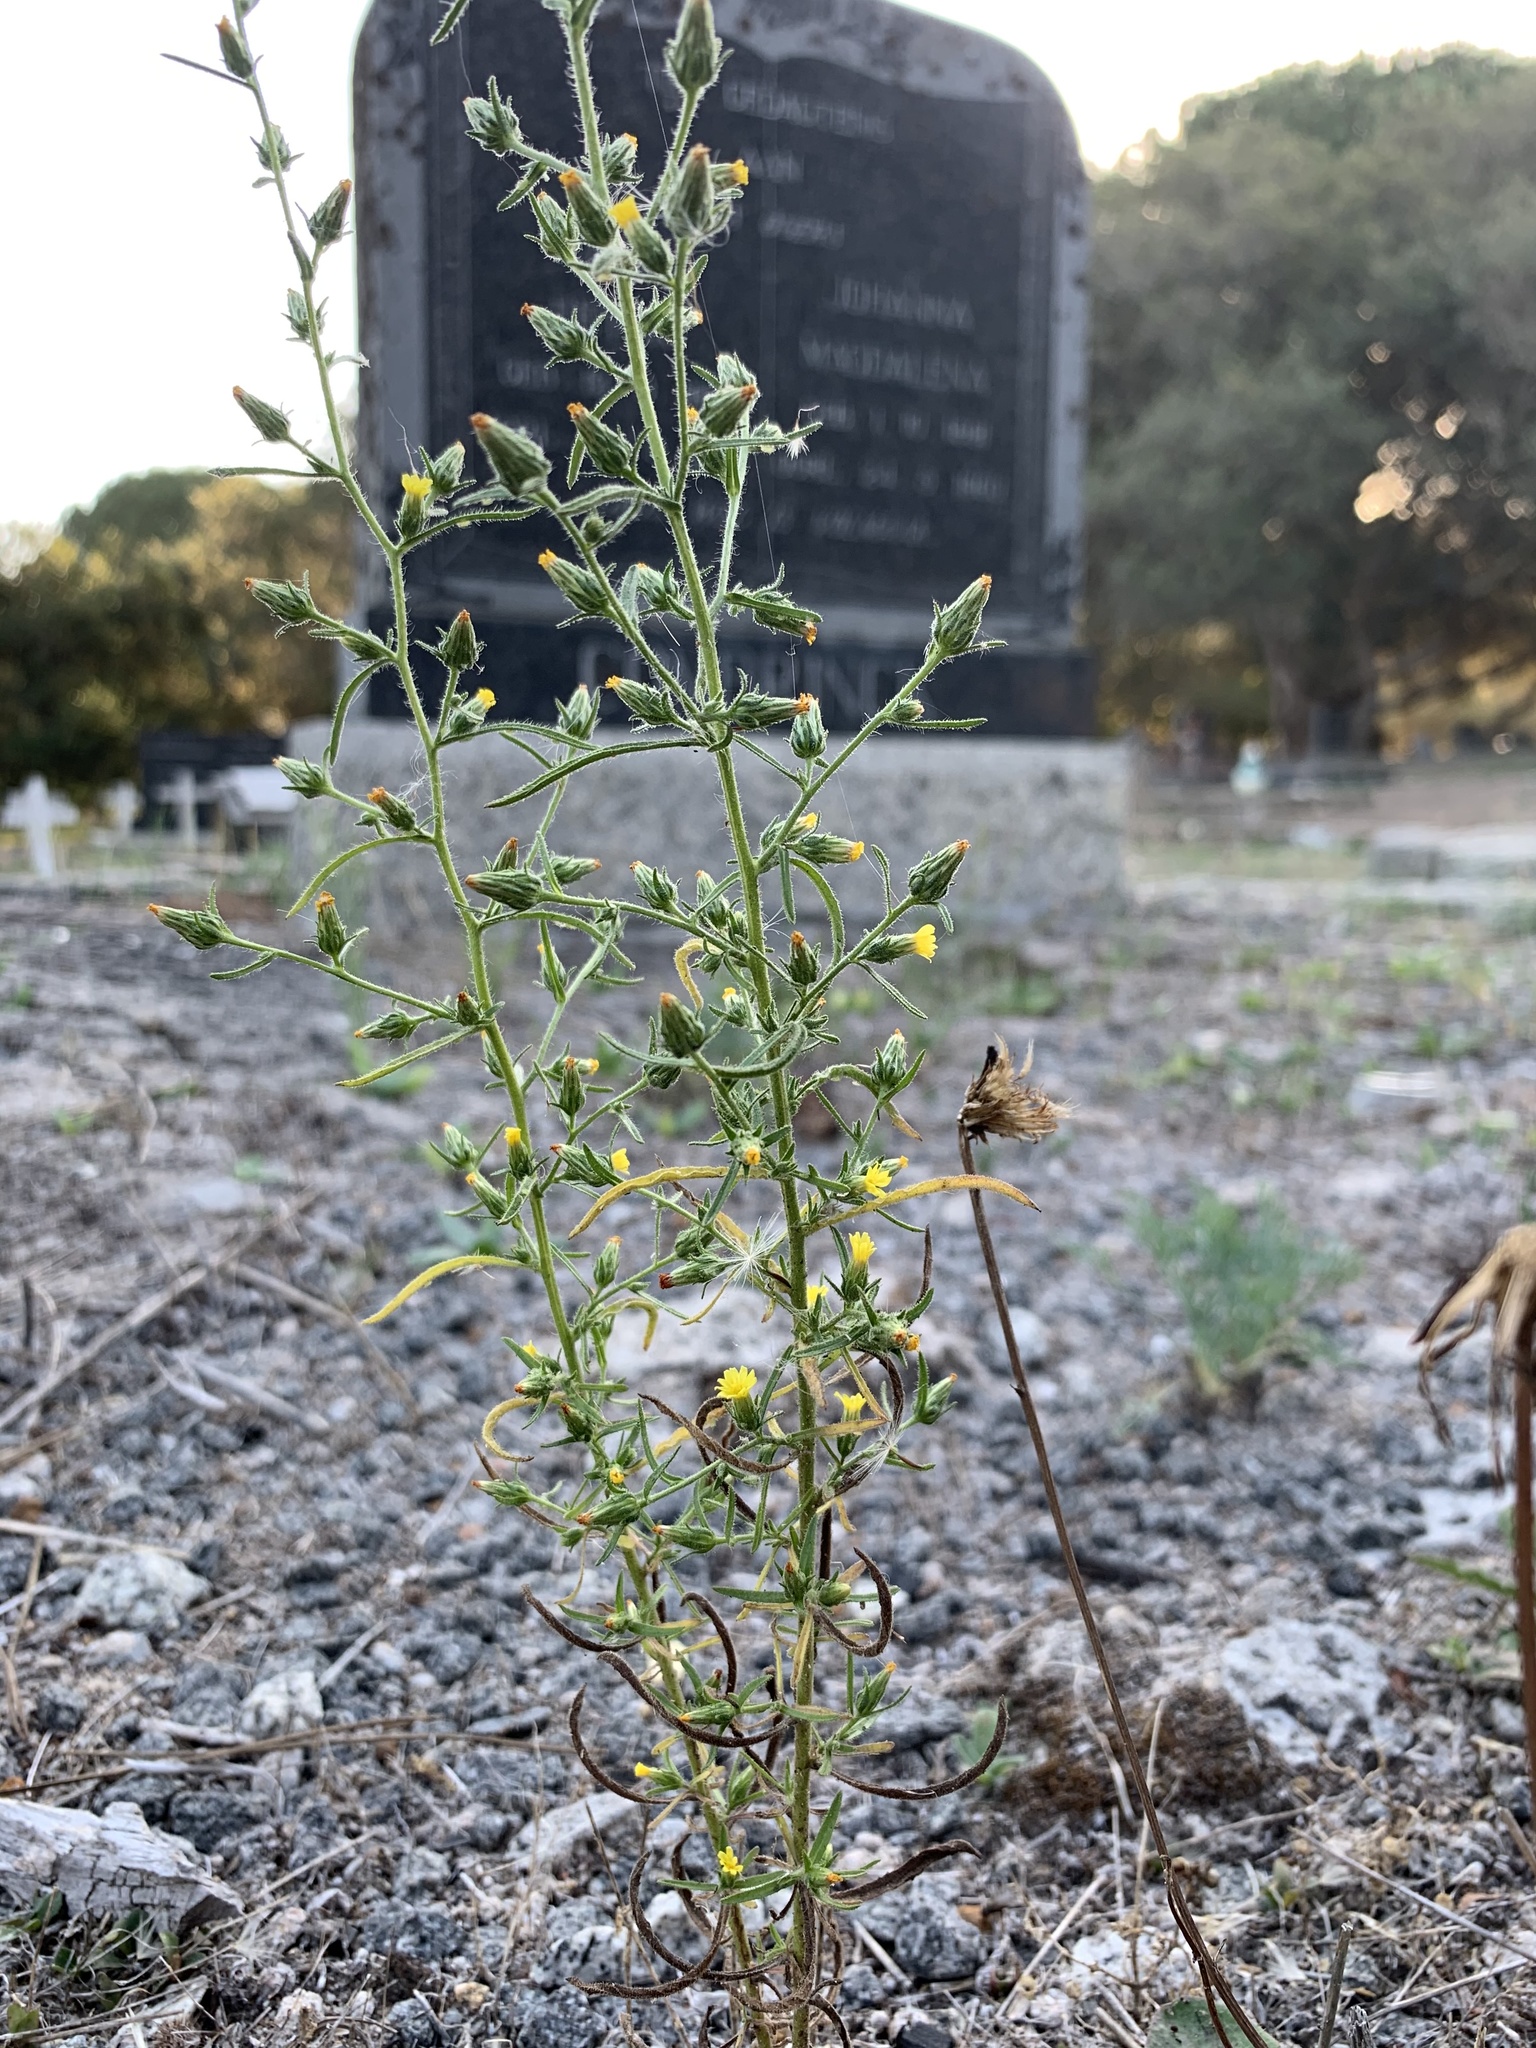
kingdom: Plantae
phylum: Tracheophyta
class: Magnoliopsida
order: Asterales
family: Asteraceae
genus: Dittrichia
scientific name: Dittrichia graveolens
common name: Stinking fleabane
